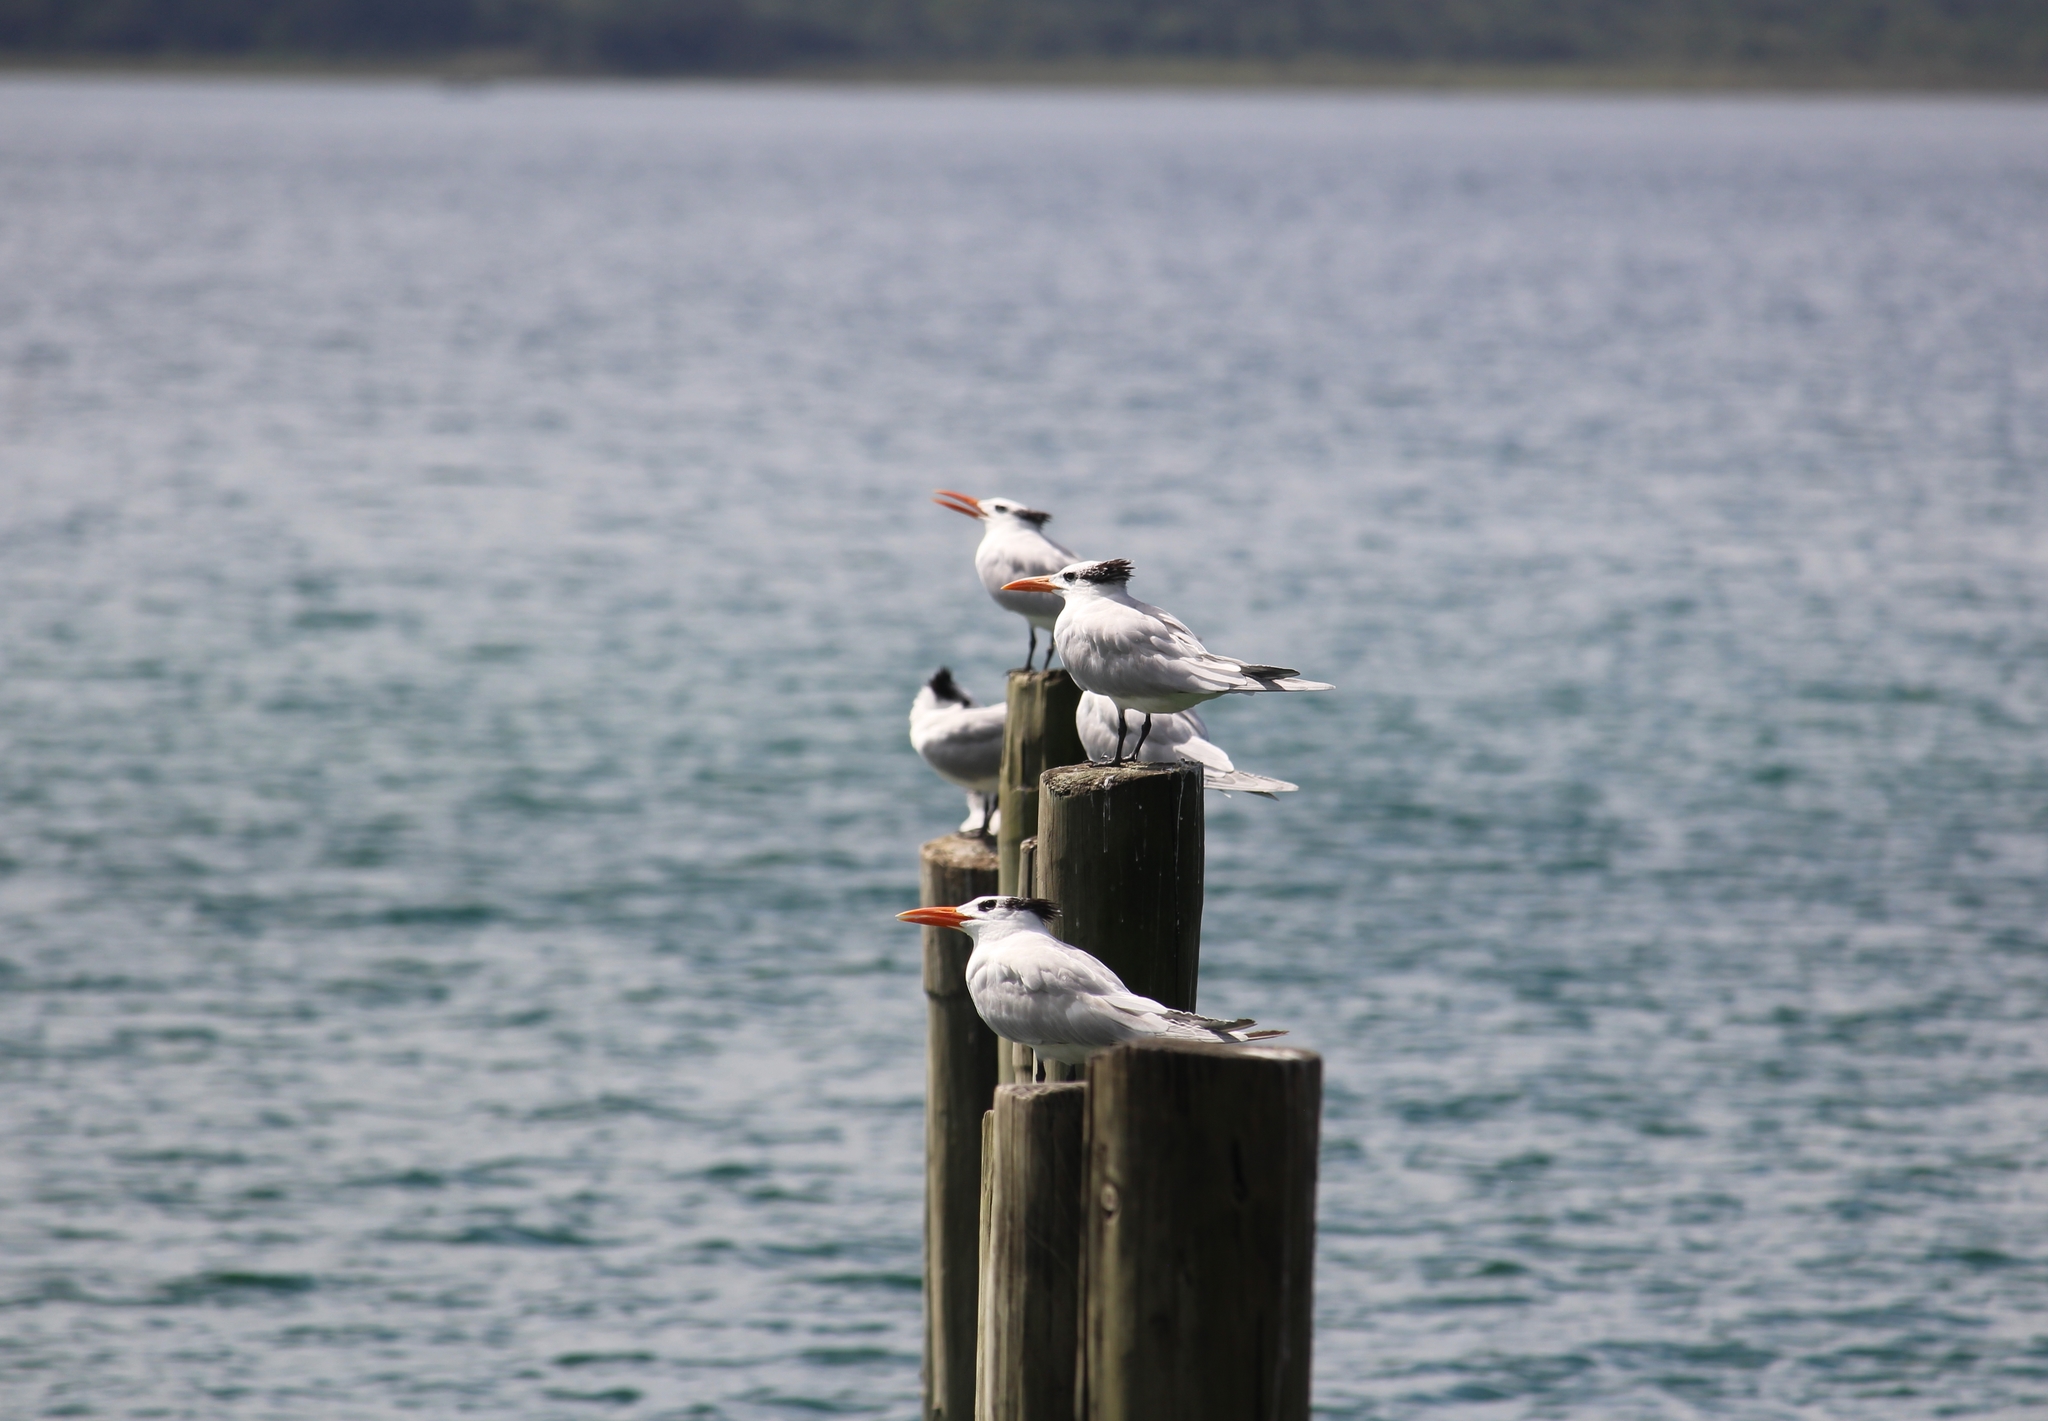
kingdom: Animalia
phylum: Chordata
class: Aves
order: Charadriiformes
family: Laridae
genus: Thalasseus
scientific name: Thalasseus maximus
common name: Royal tern
